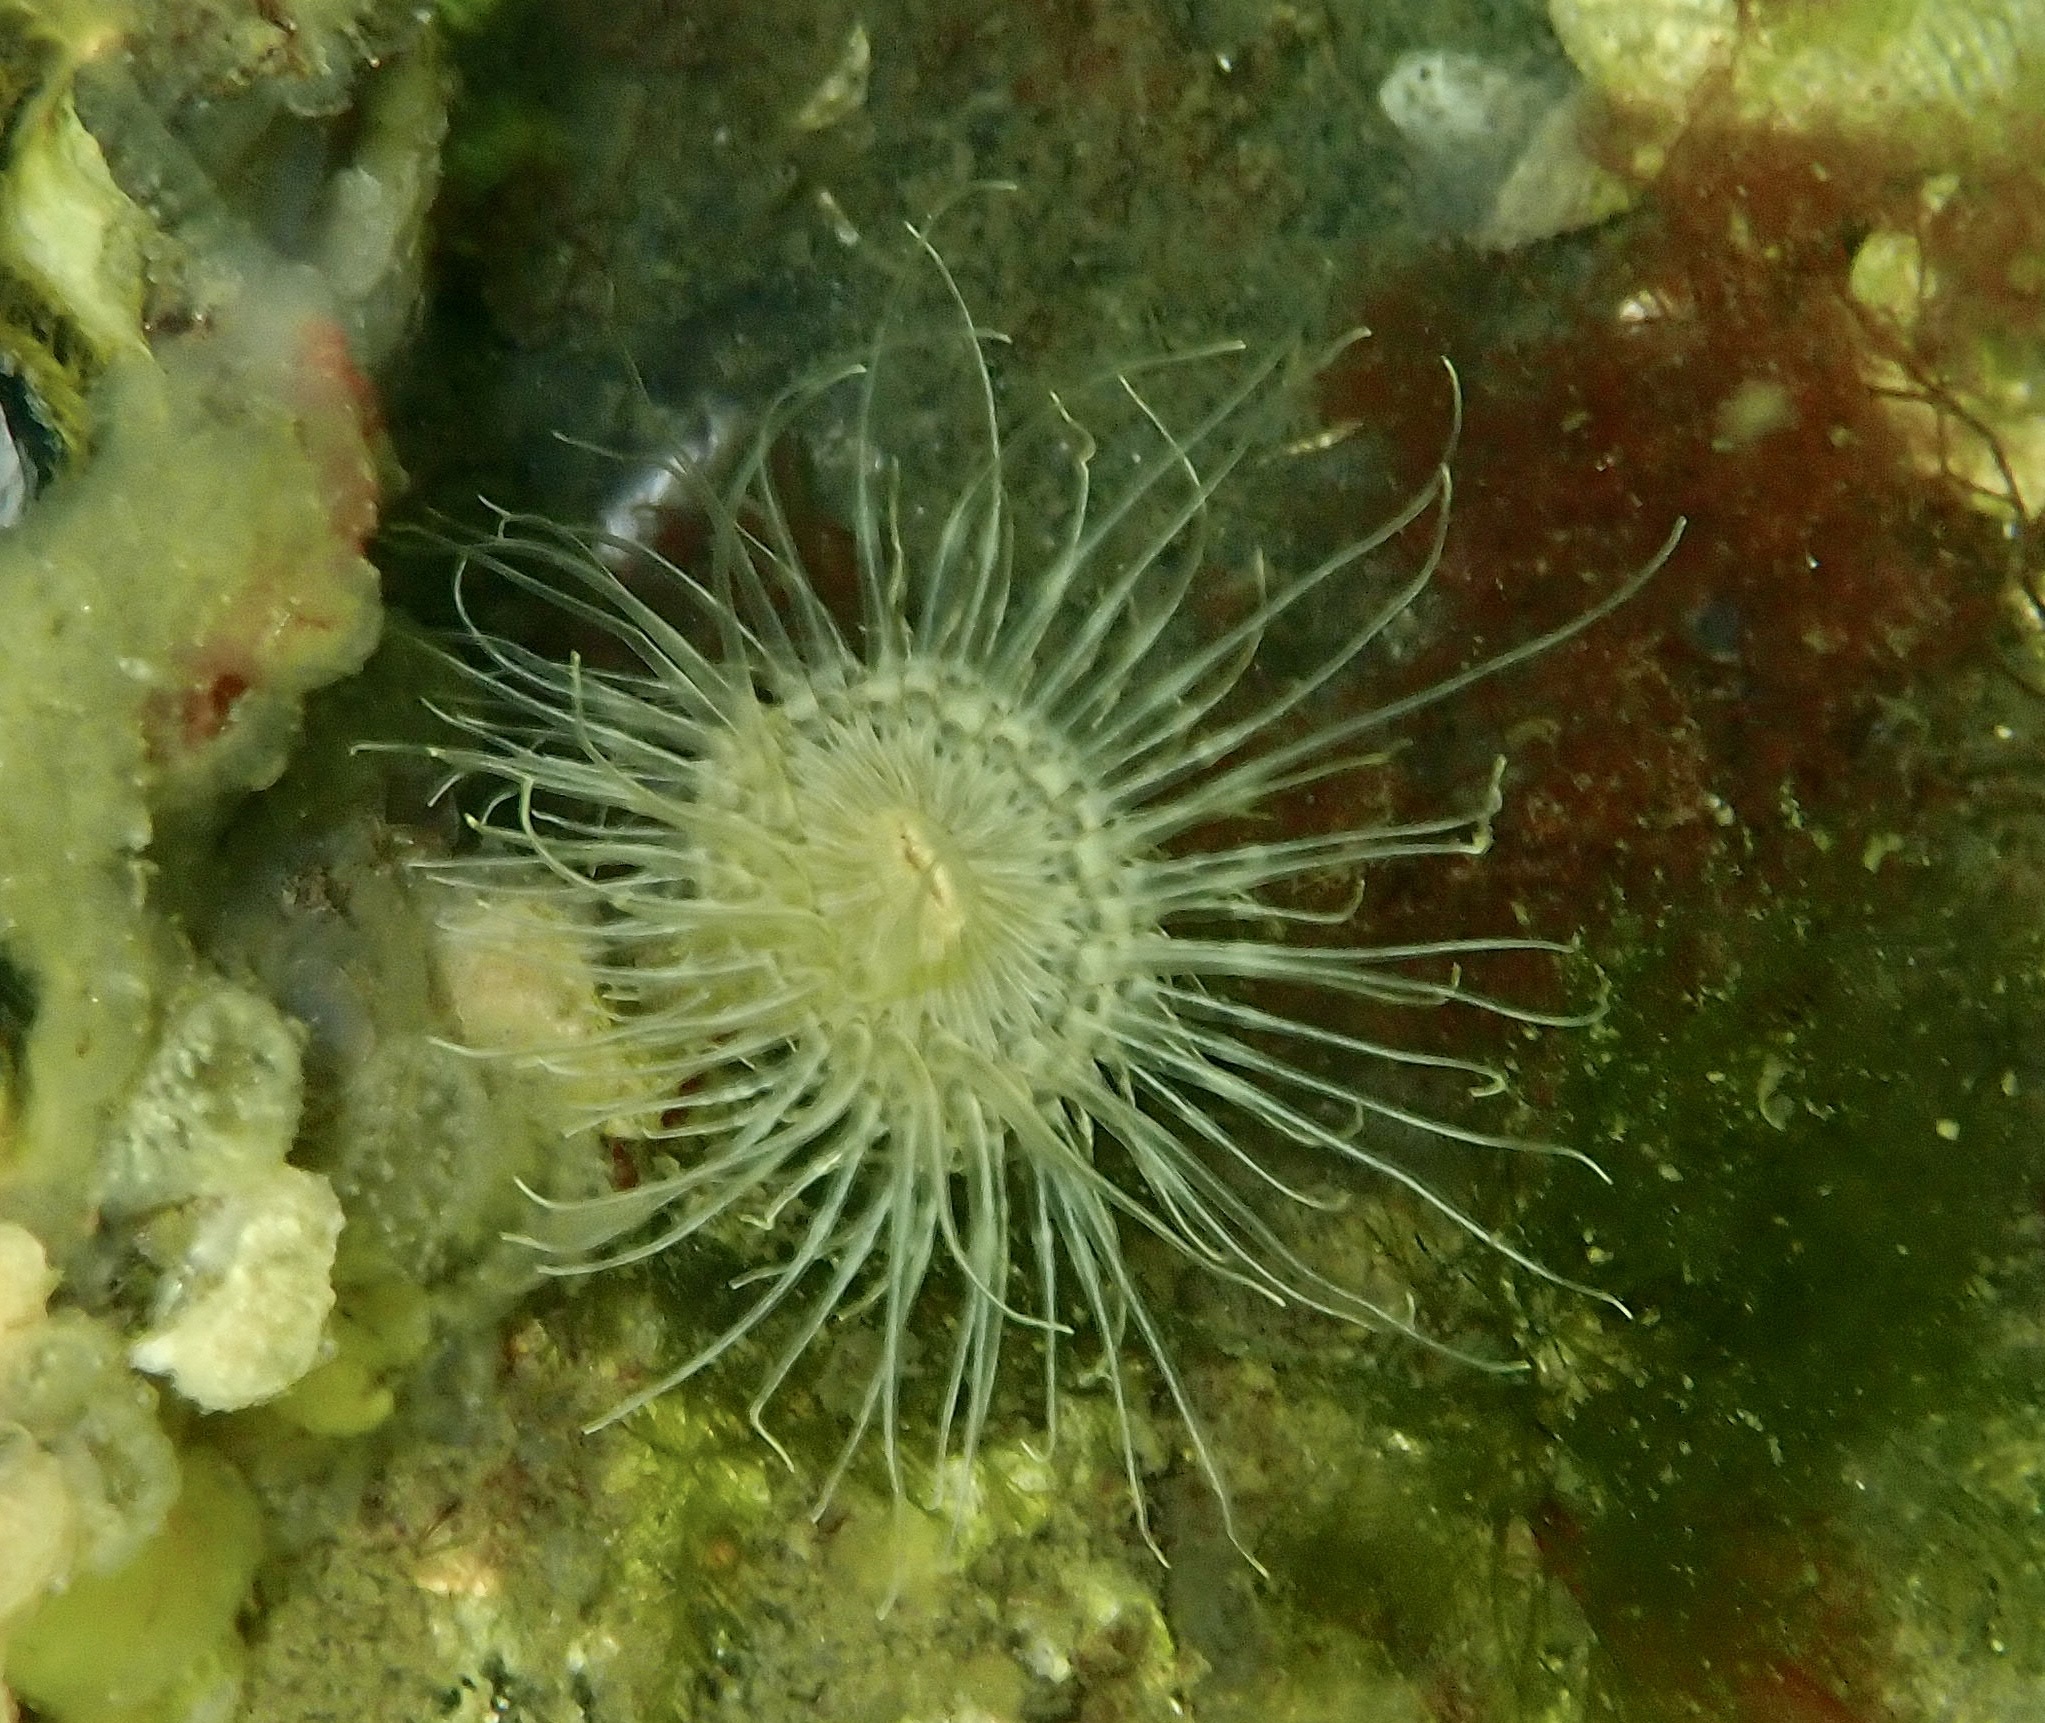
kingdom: Animalia
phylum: Cnidaria
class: Anthozoa
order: Actiniaria
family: Sagartiidae
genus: Sagartia
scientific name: Sagartia undata
